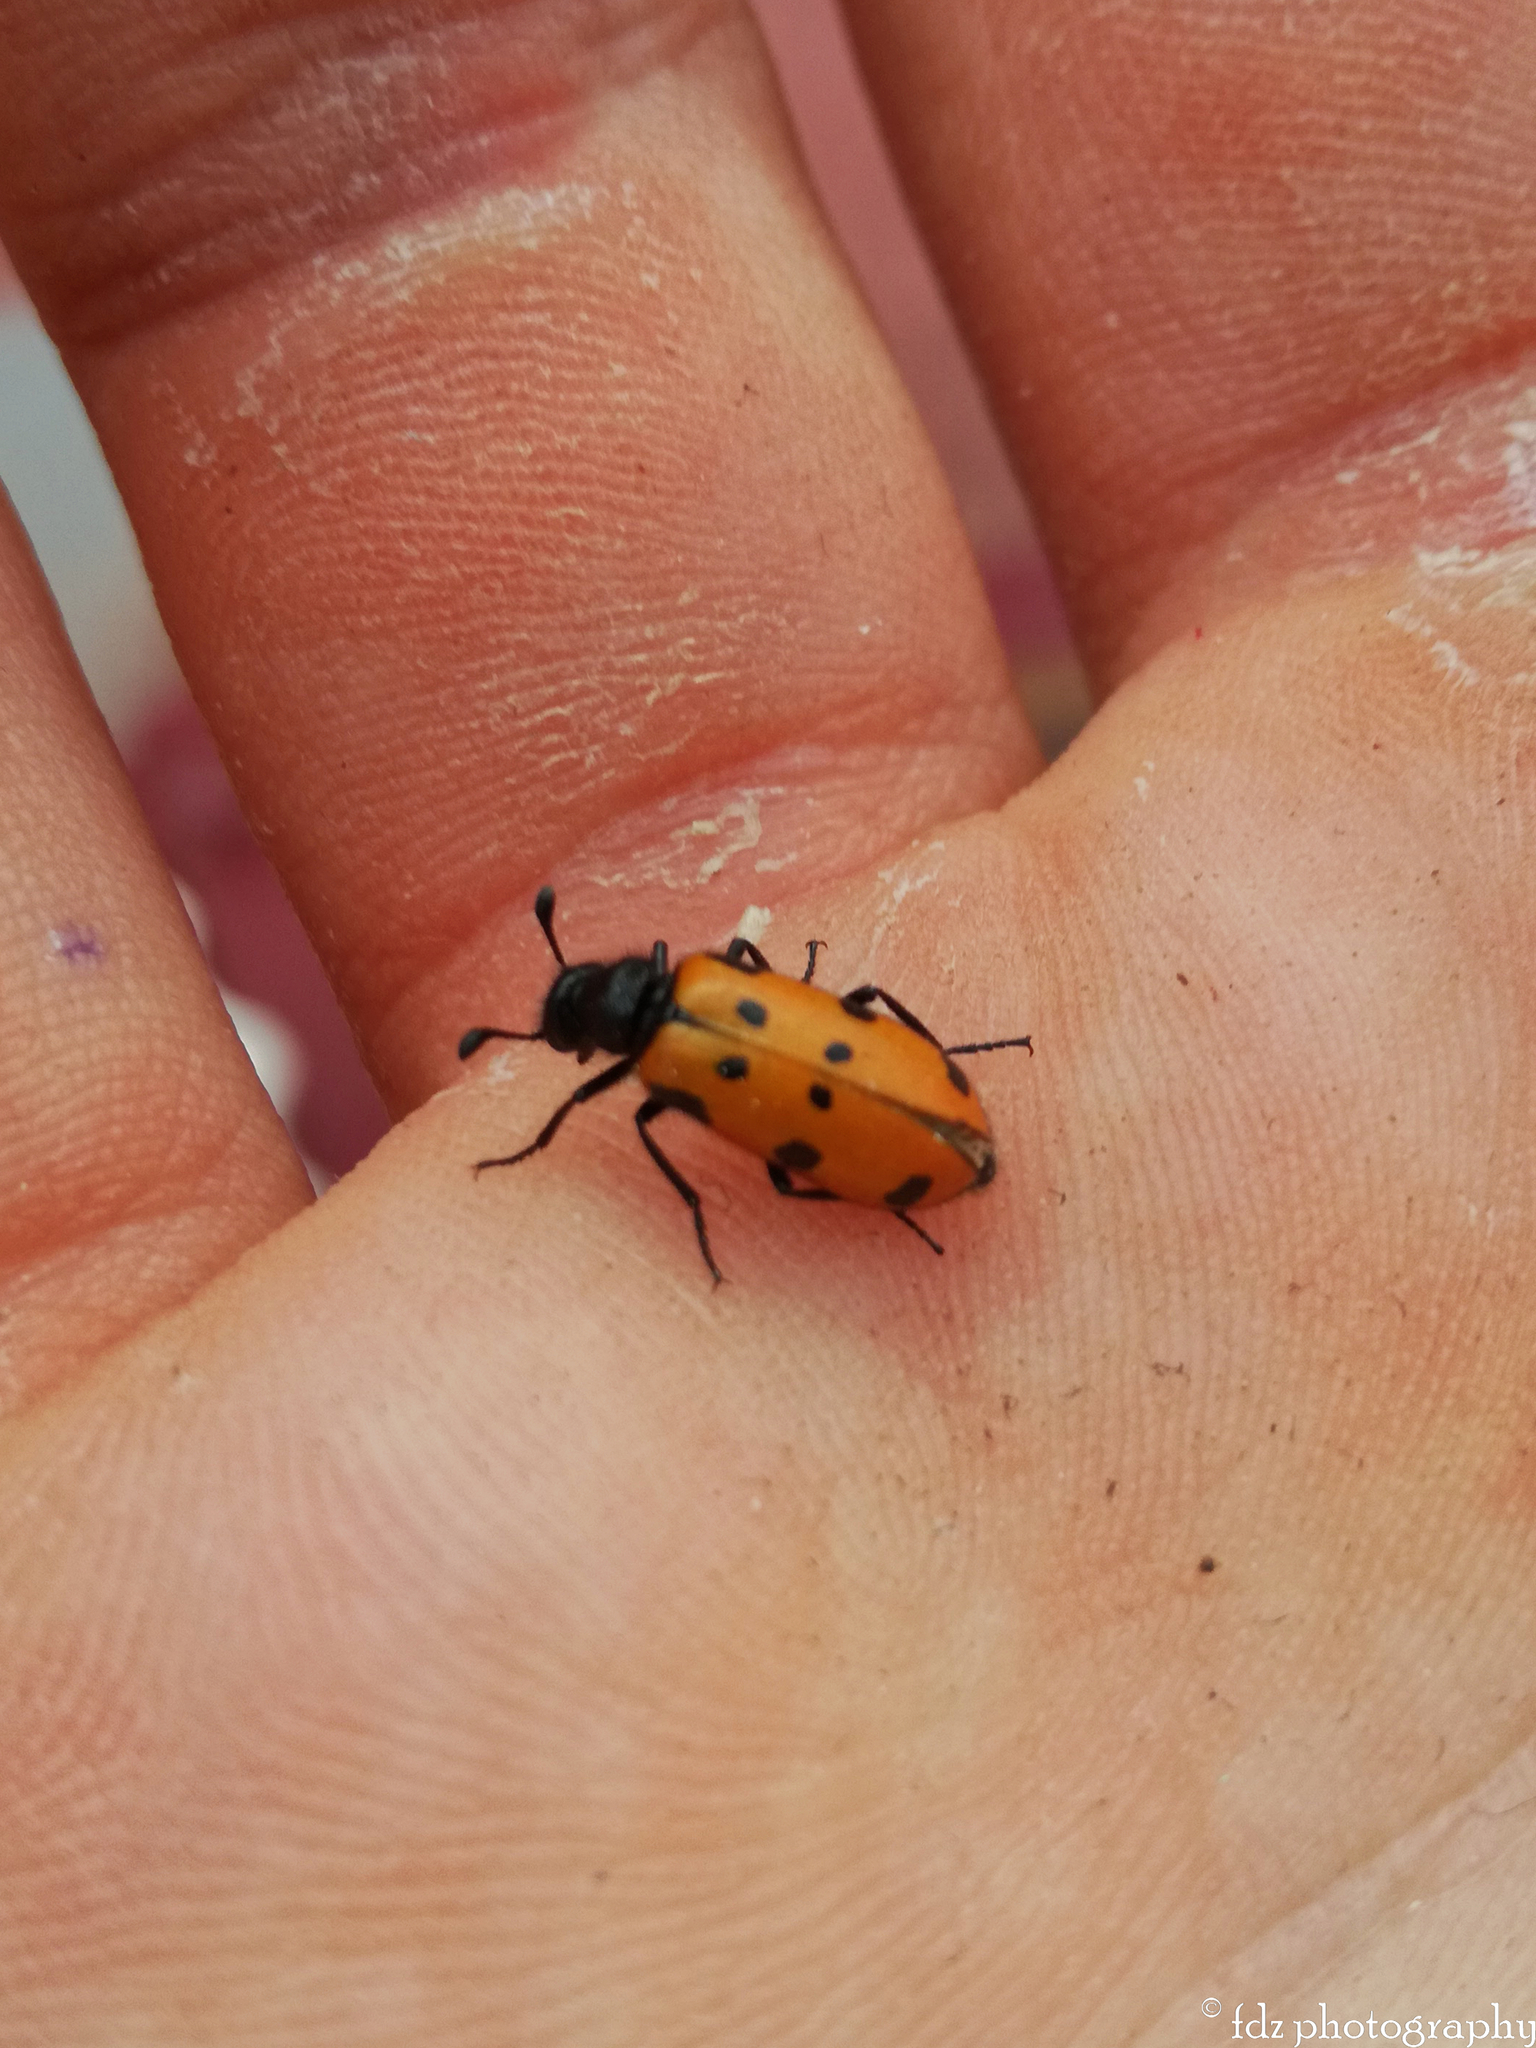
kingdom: Animalia
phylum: Arthropoda
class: Insecta
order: Coleoptera
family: Meloidae
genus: Actenodia
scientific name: Actenodia billbergi
